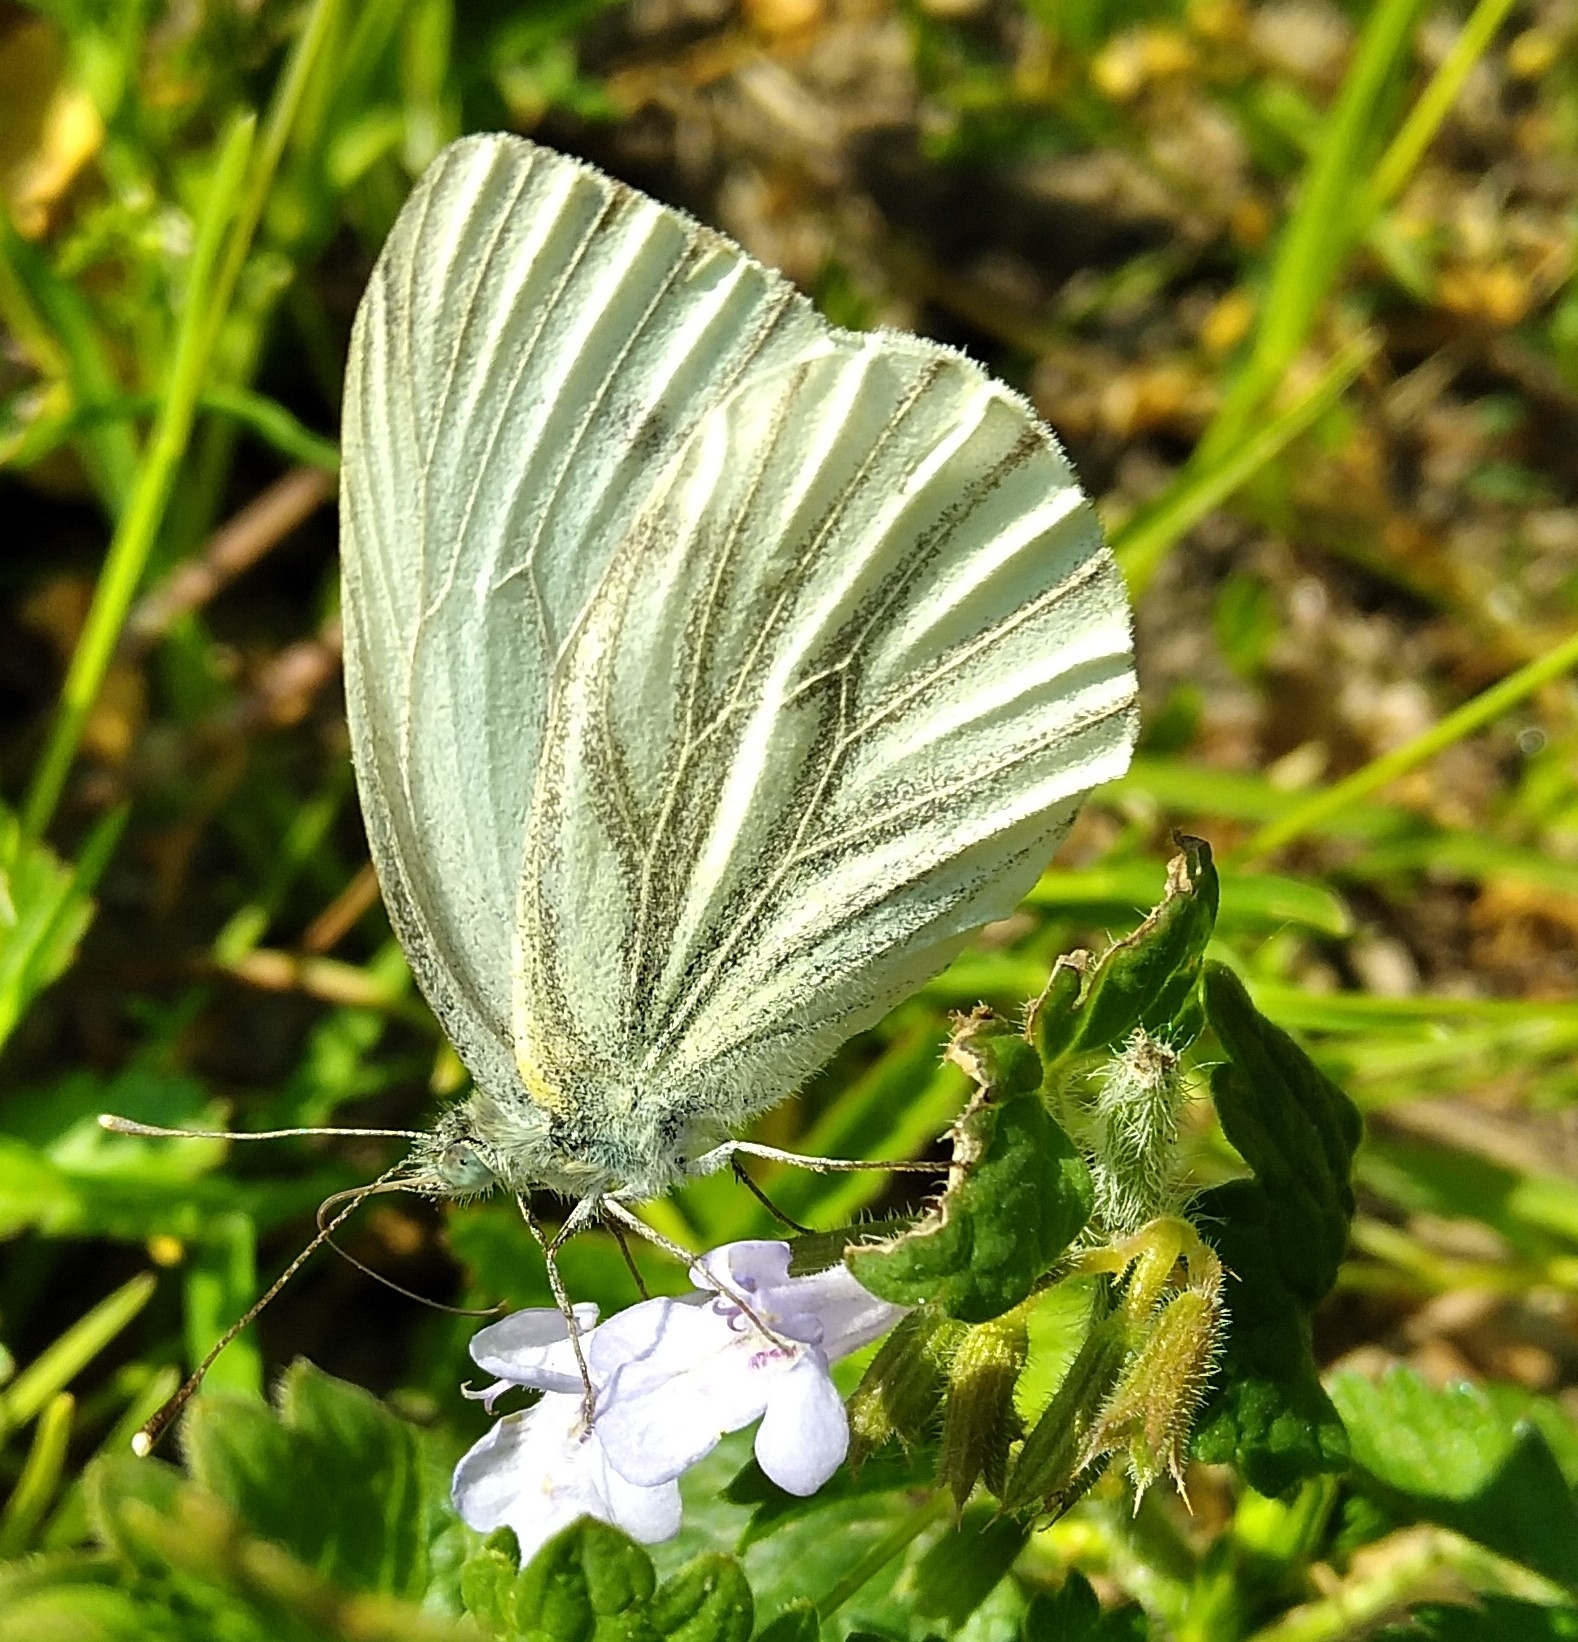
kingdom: Animalia
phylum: Arthropoda
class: Insecta
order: Lepidoptera
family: Pieridae
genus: Pieris
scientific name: Pieris napi
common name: Green-veined white
